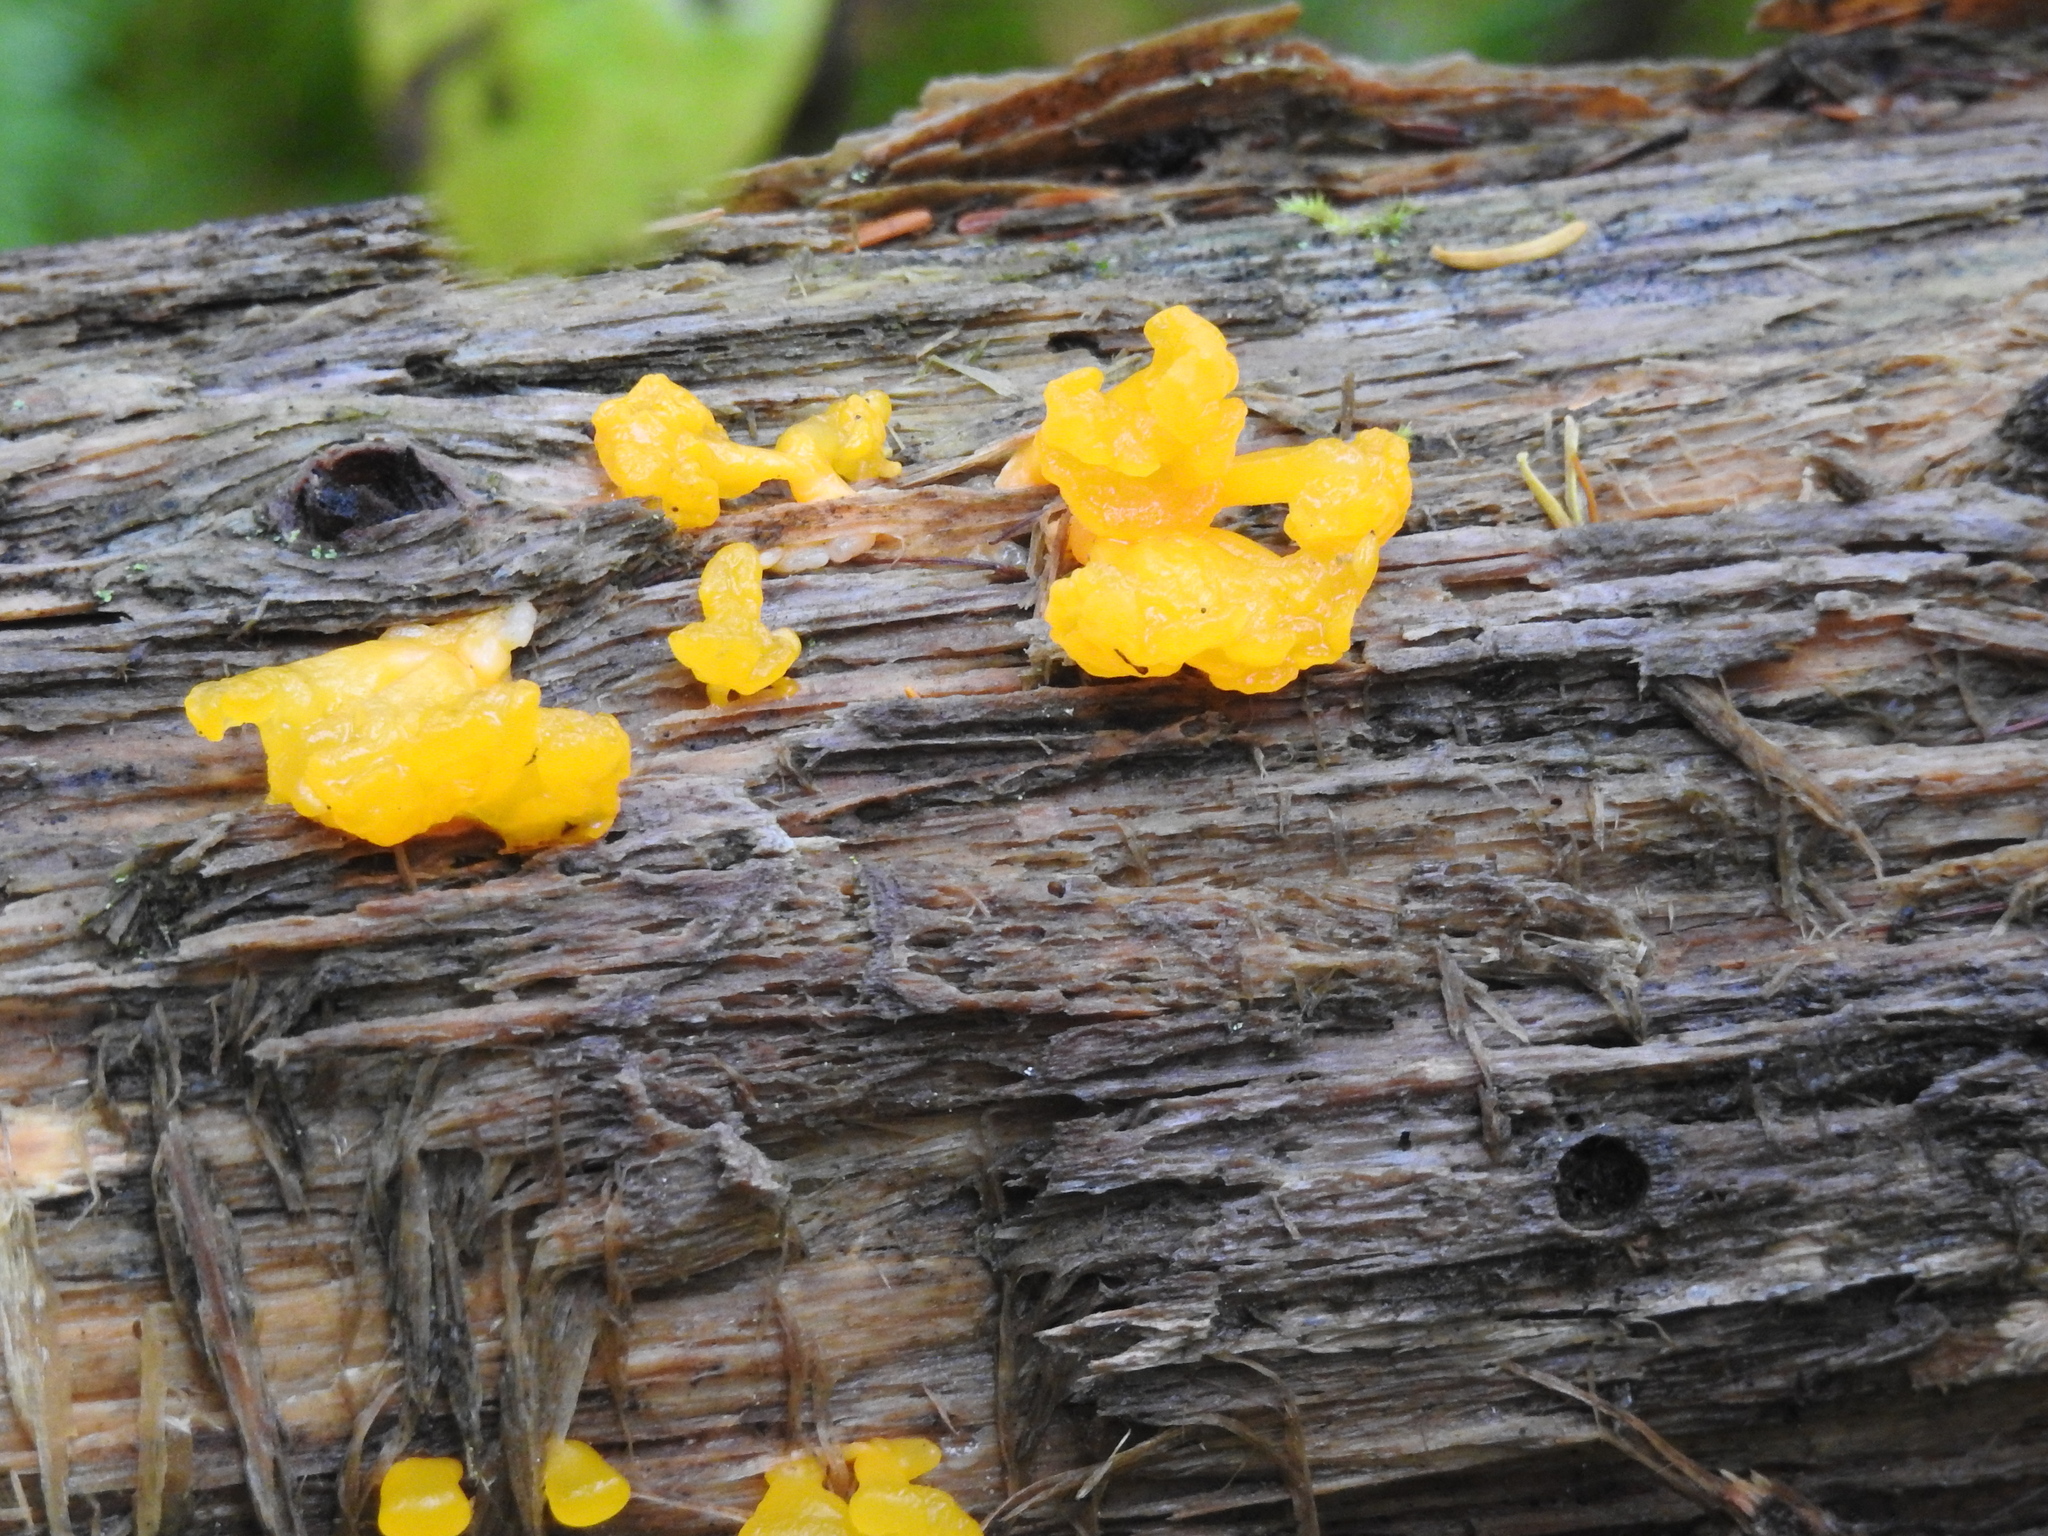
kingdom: Fungi
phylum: Basidiomycota
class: Dacrymycetes
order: Dacrymycetales
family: Dacrymycetaceae
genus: Dacrymyces
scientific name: Dacrymyces chrysospermus
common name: Orange jelly spot
